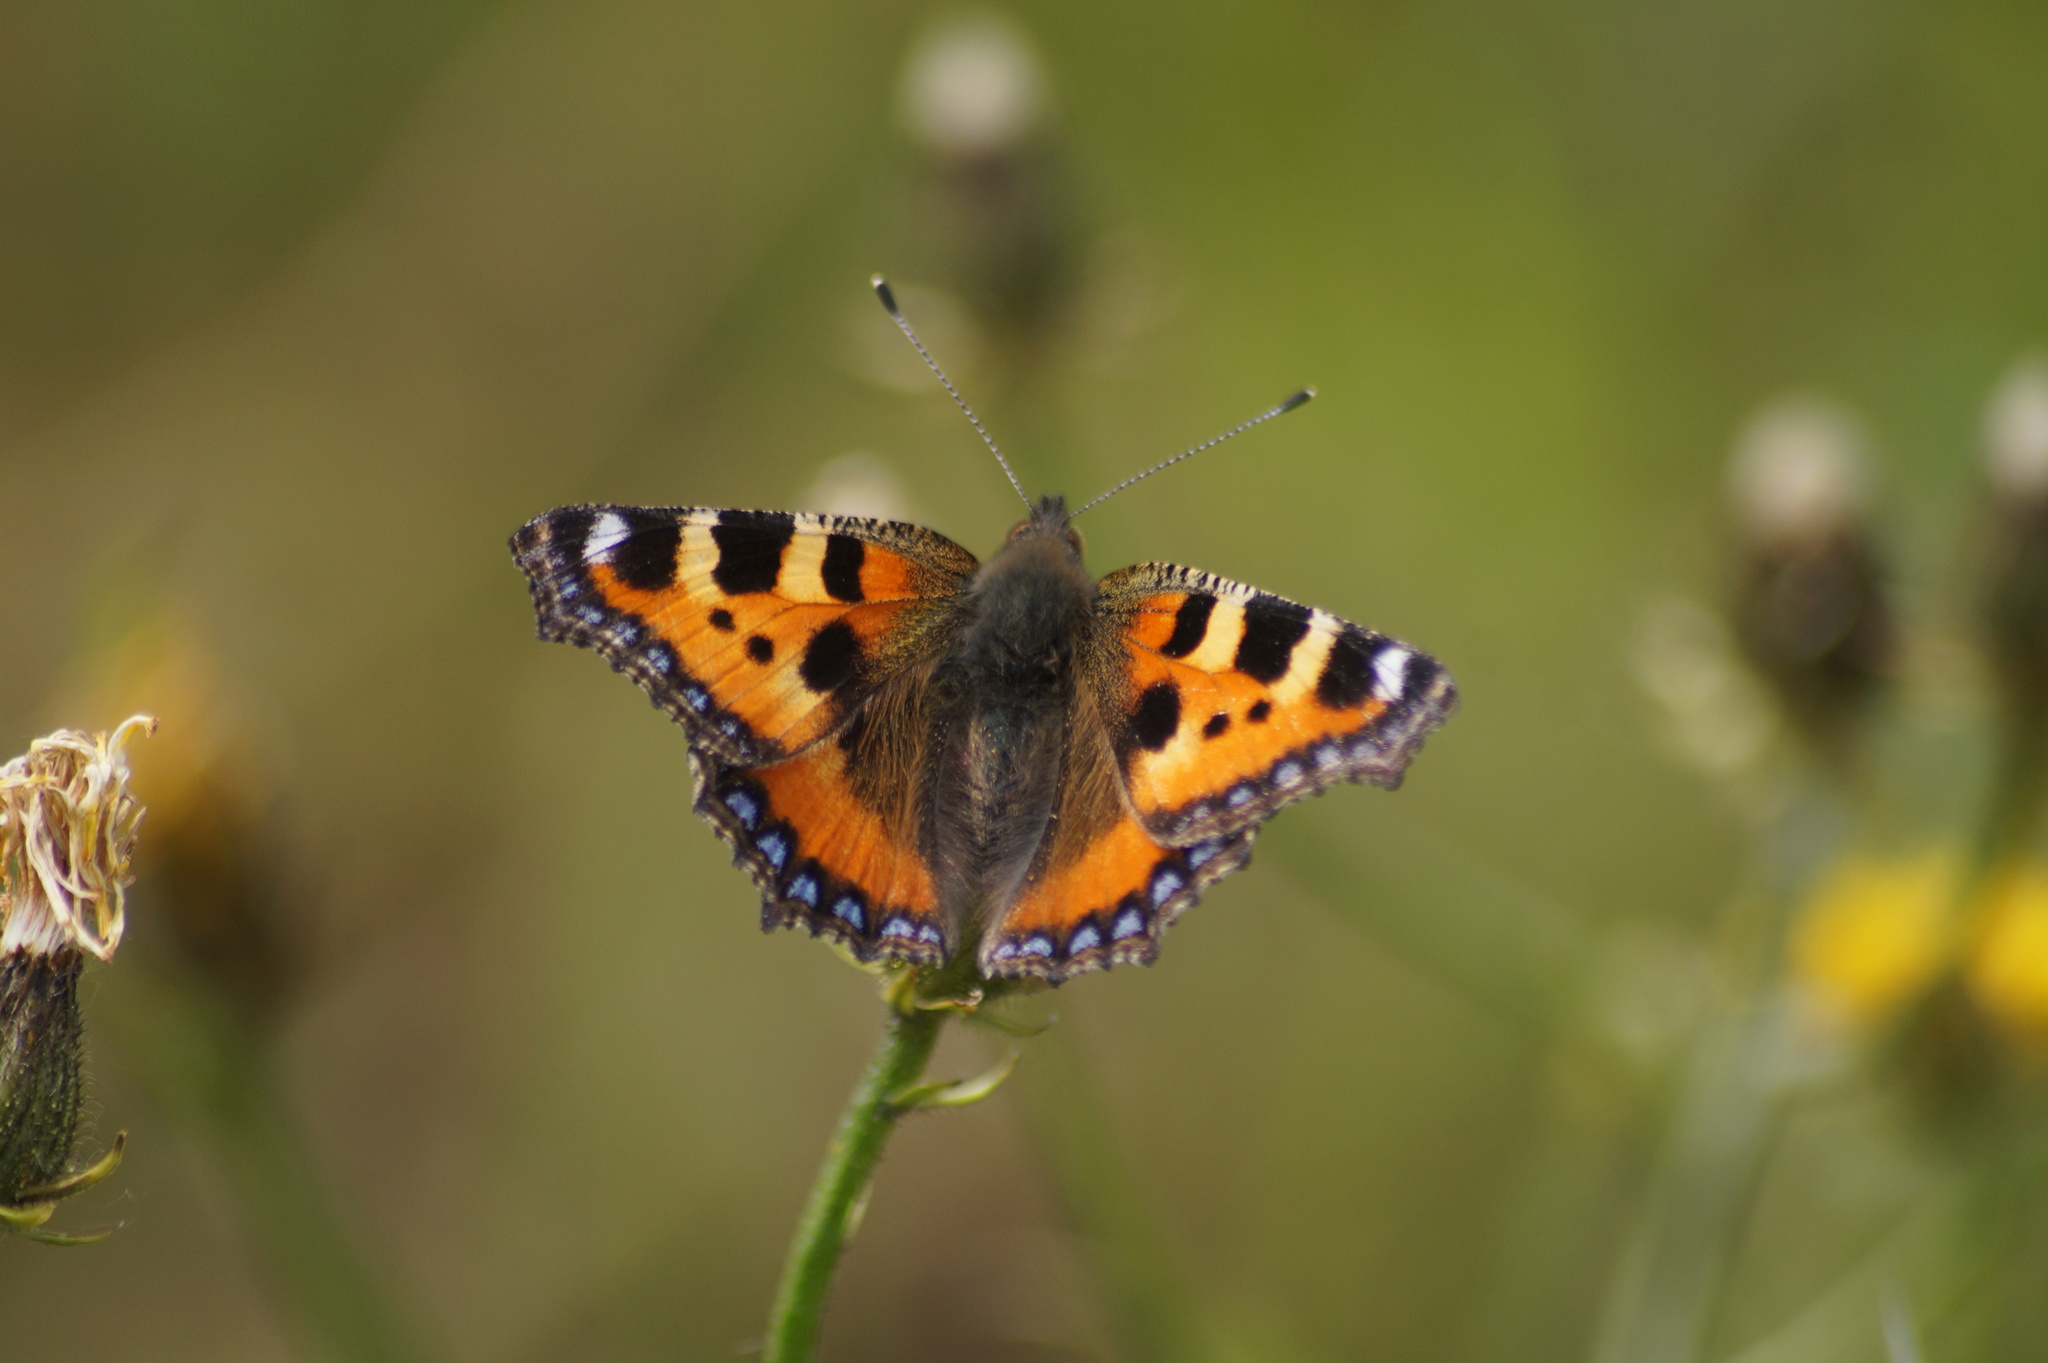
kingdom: Animalia
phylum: Arthropoda
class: Insecta
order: Lepidoptera
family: Nymphalidae
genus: Aglais
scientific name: Aglais urticae
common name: Small tortoiseshell
